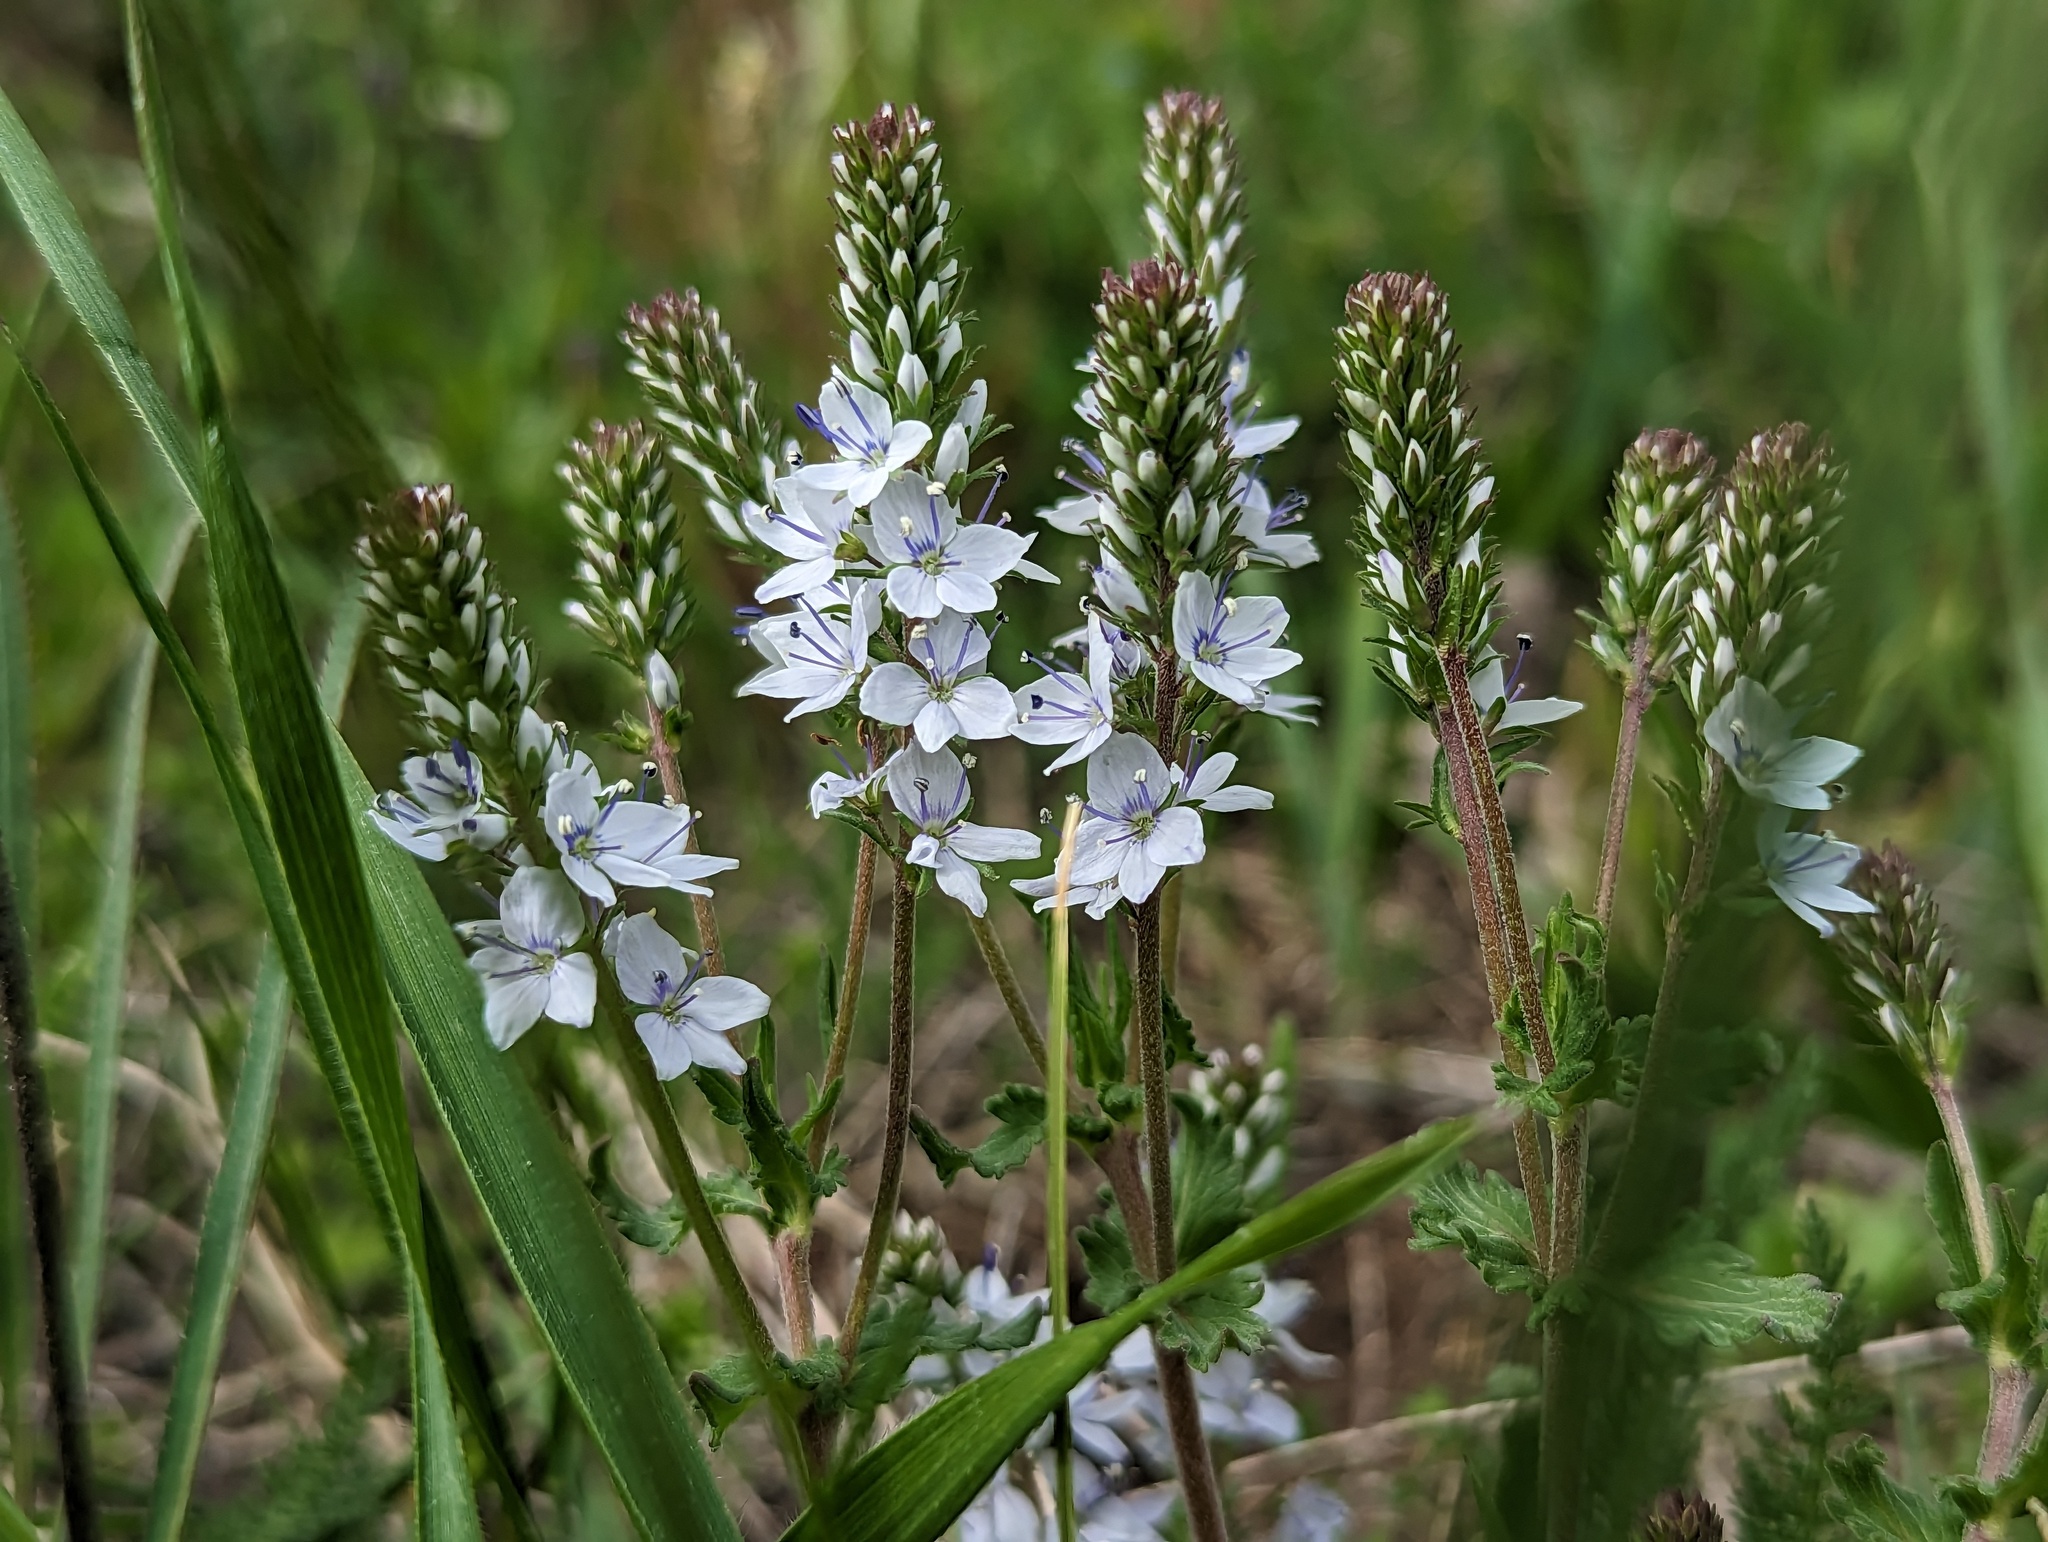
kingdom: Plantae
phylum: Tracheophyta
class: Magnoliopsida
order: Lamiales
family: Plantaginaceae
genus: Veronica
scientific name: Veronica prostrata
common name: Prostrate speedwell
